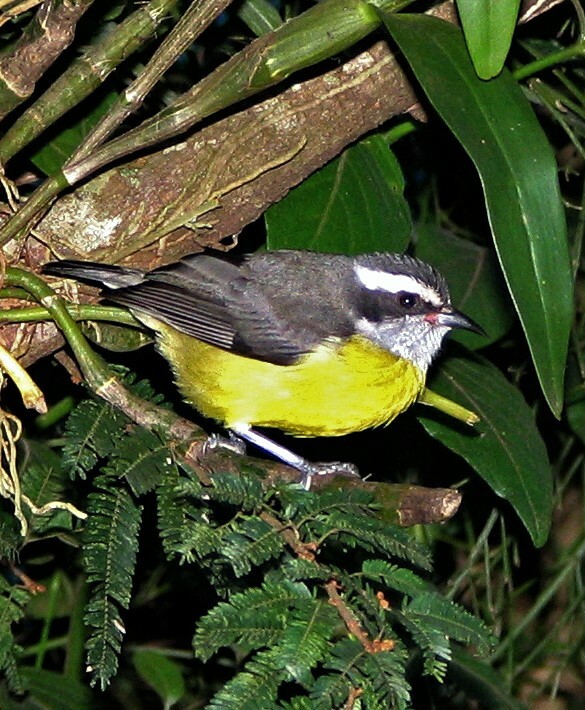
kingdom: Animalia
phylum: Chordata
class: Aves
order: Passeriformes
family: Thraupidae
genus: Coereba
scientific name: Coereba flaveola
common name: Bananaquit
